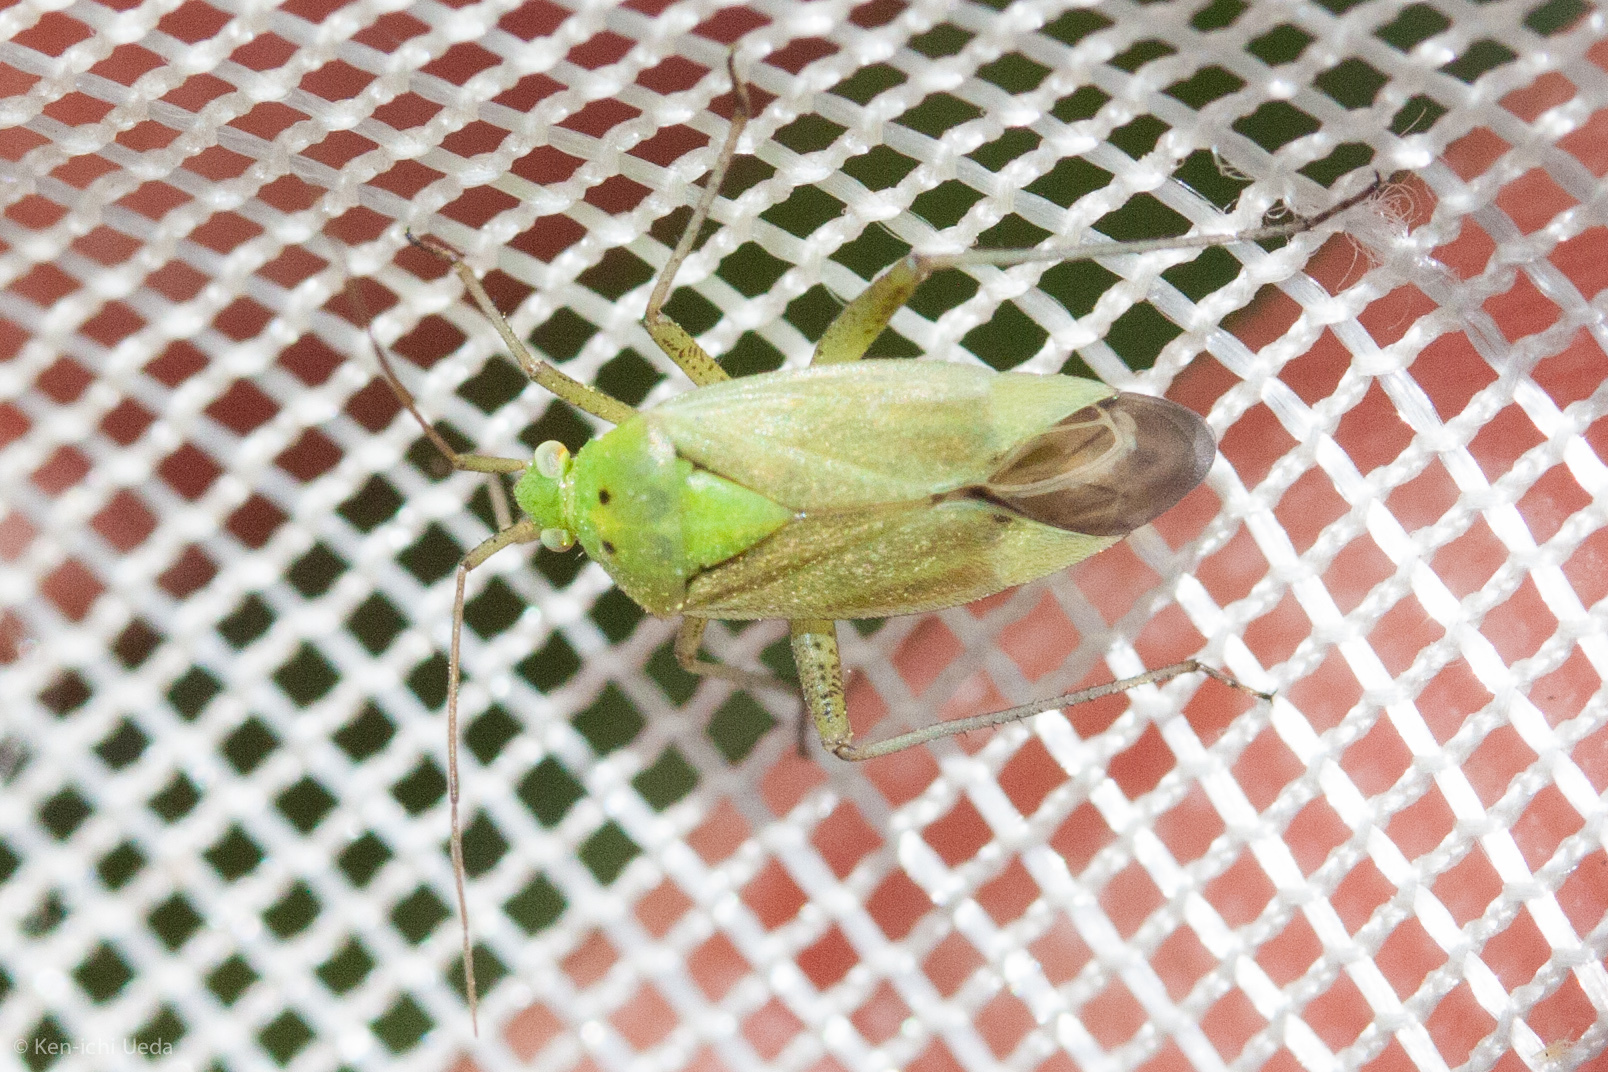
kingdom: Animalia
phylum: Arthropoda
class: Insecta
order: Hemiptera
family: Miridae
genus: Closterotomus
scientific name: Closterotomus norvegicus
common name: Plant bug
